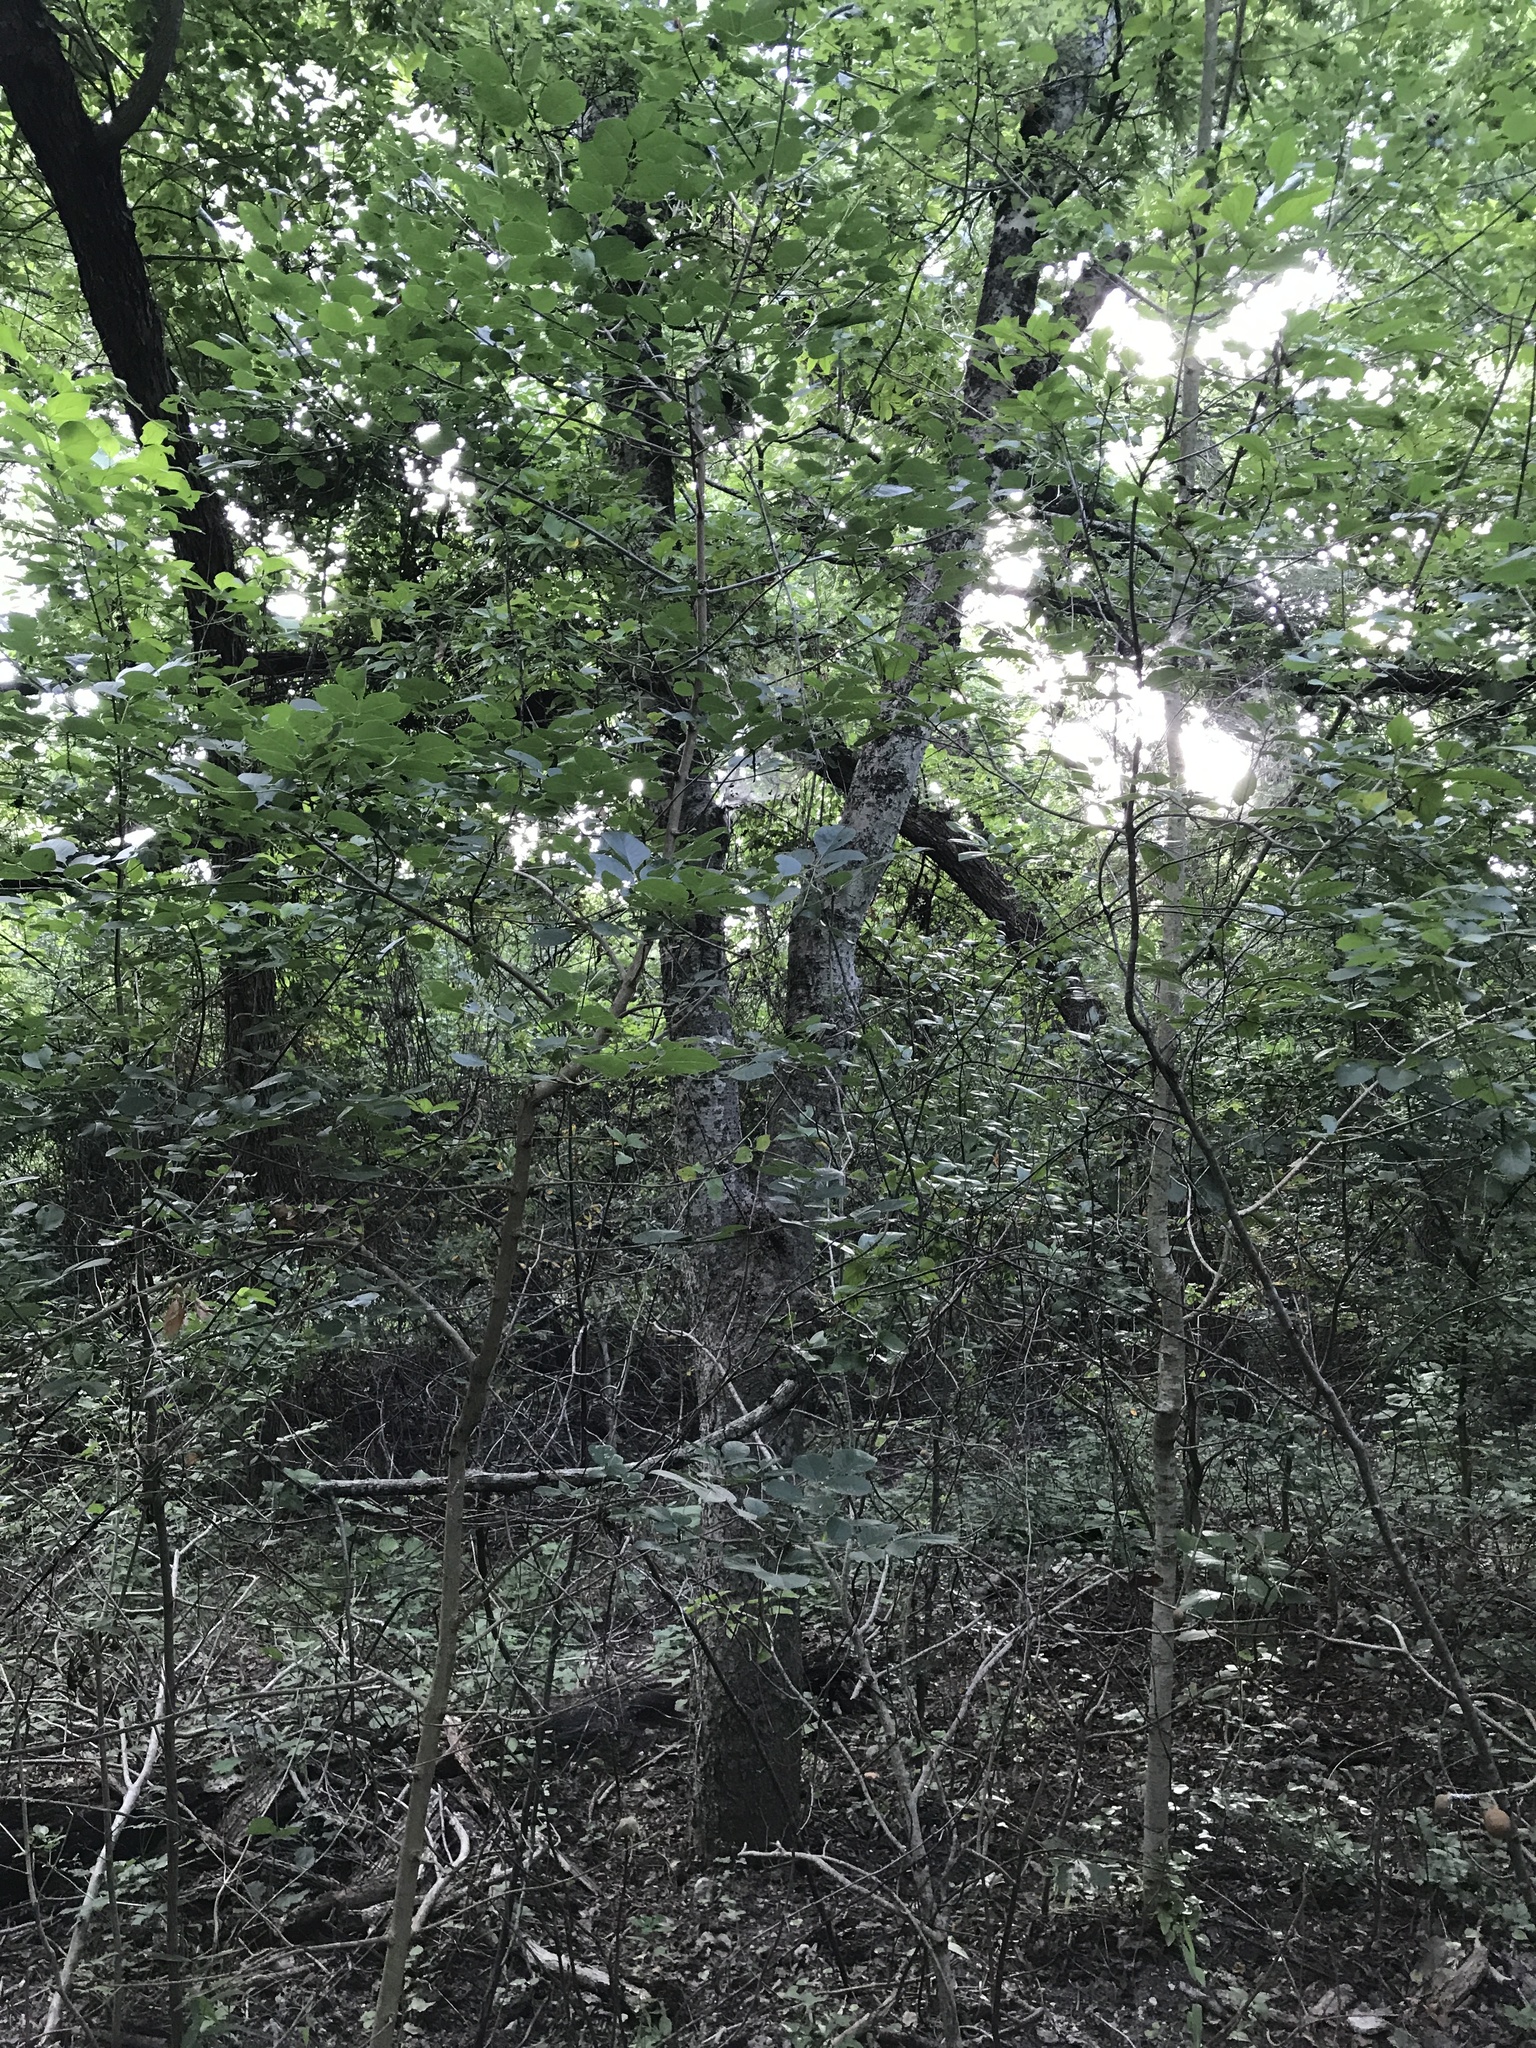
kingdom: Plantae
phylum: Tracheophyta
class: Magnoliopsida
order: Lamiales
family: Oleaceae
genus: Fraxinus
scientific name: Fraxinus albicans
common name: Texas ash
